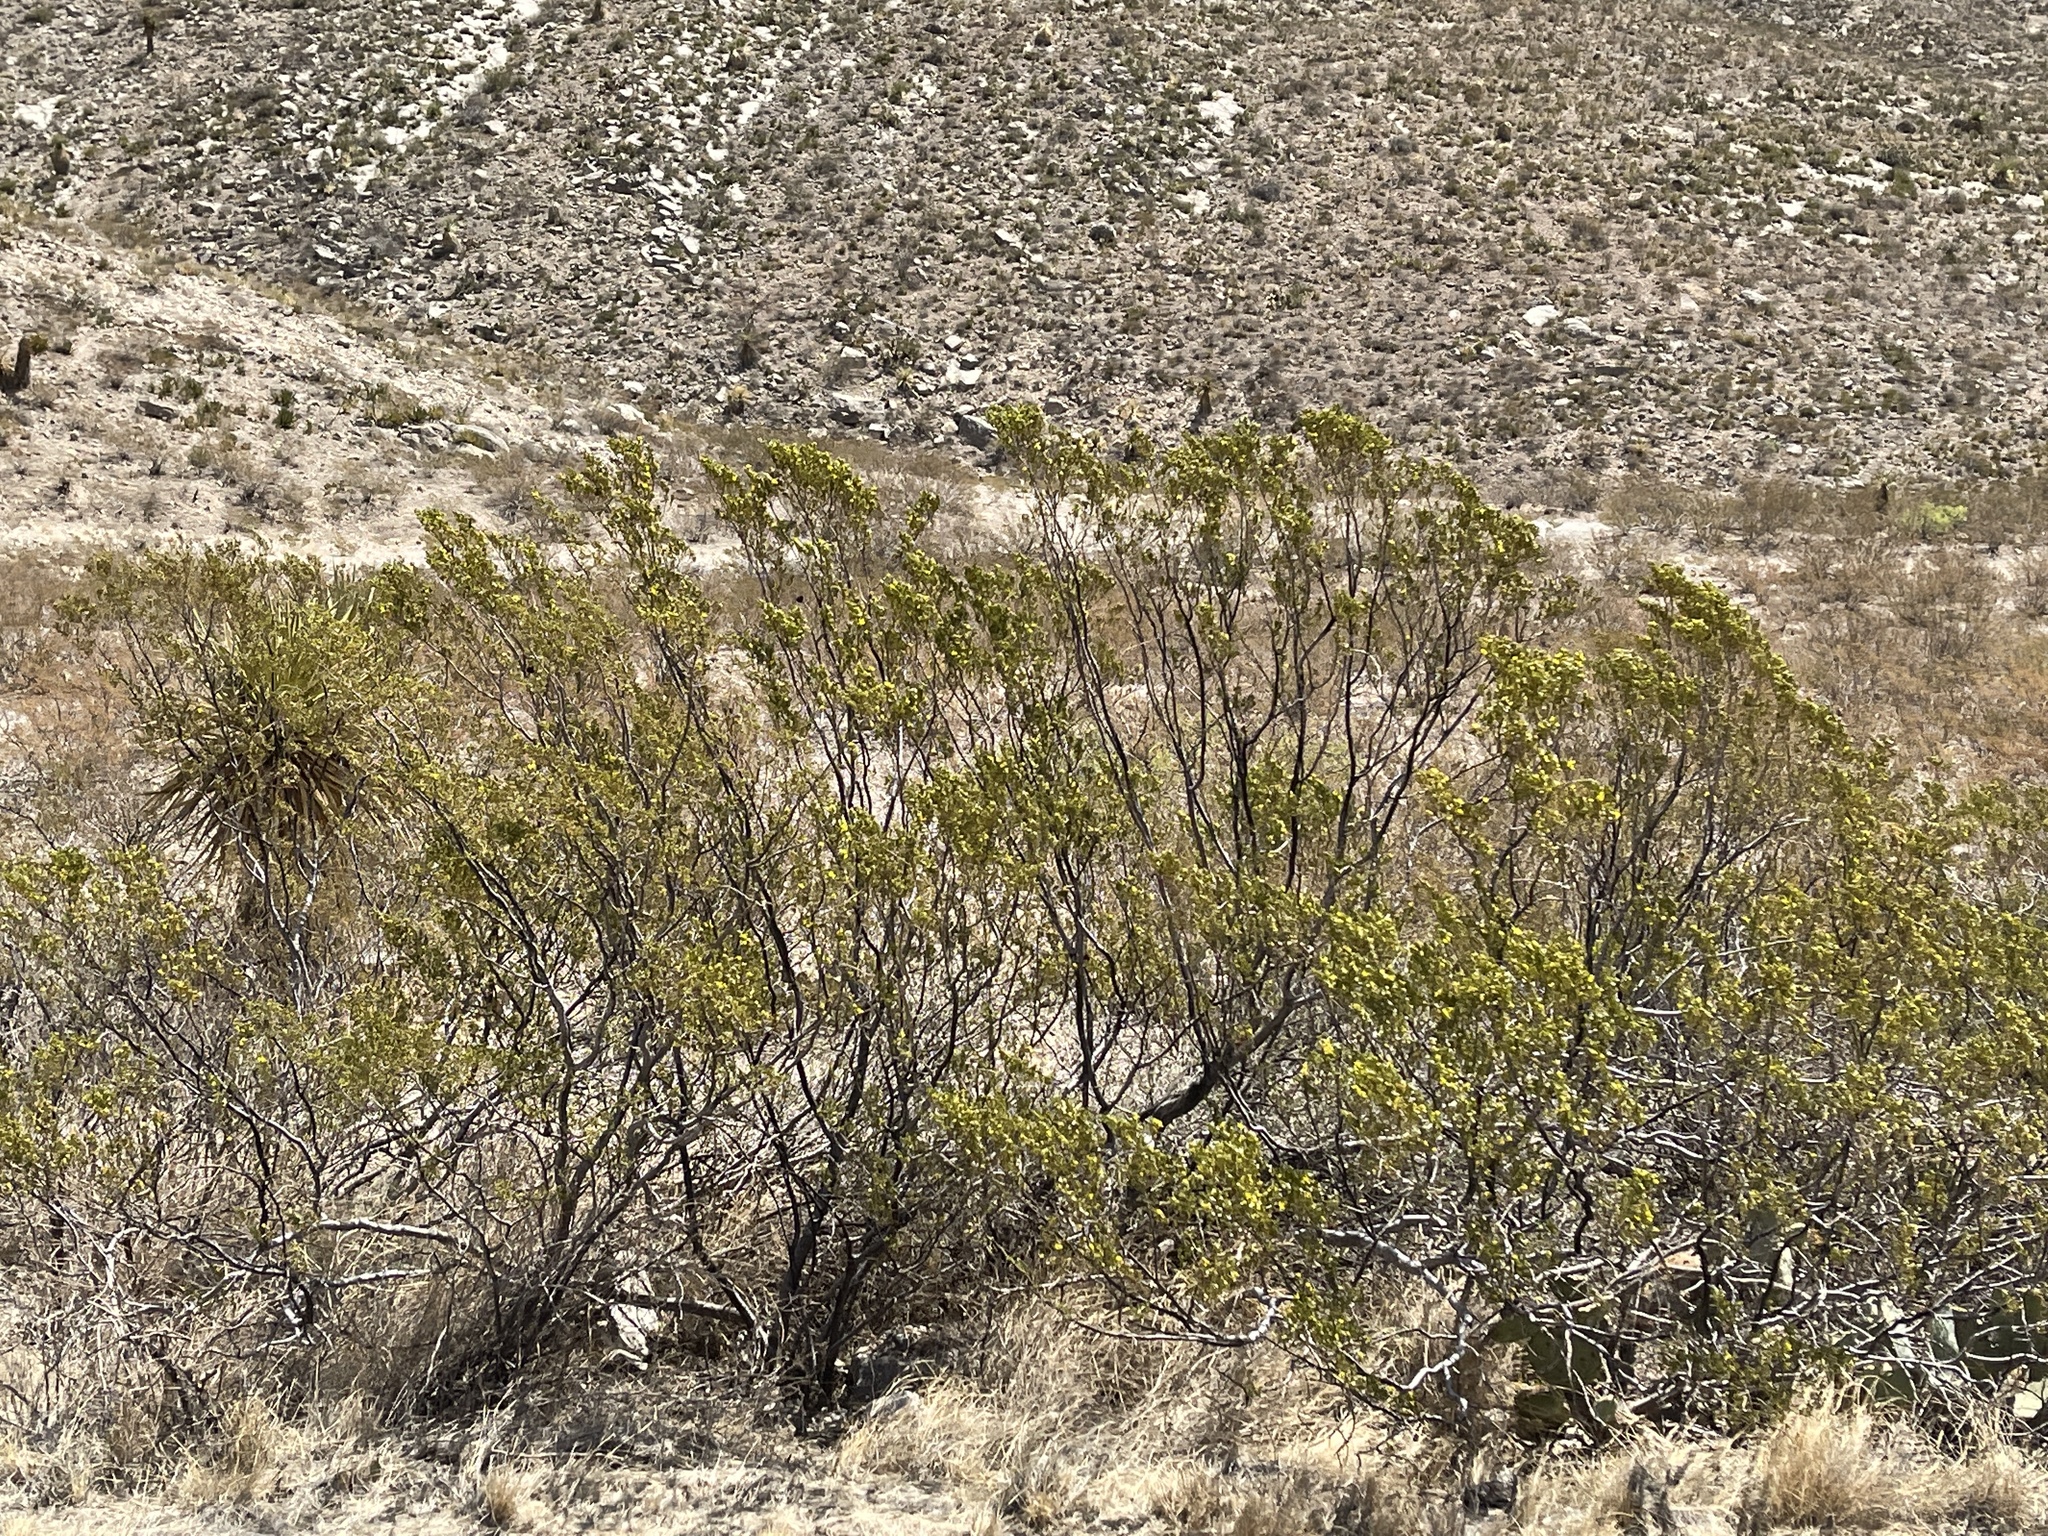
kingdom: Plantae
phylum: Tracheophyta
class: Magnoliopsida
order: Zygophyllales
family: Zygophyllaceae
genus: Larrea
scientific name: Larrea tridentata
